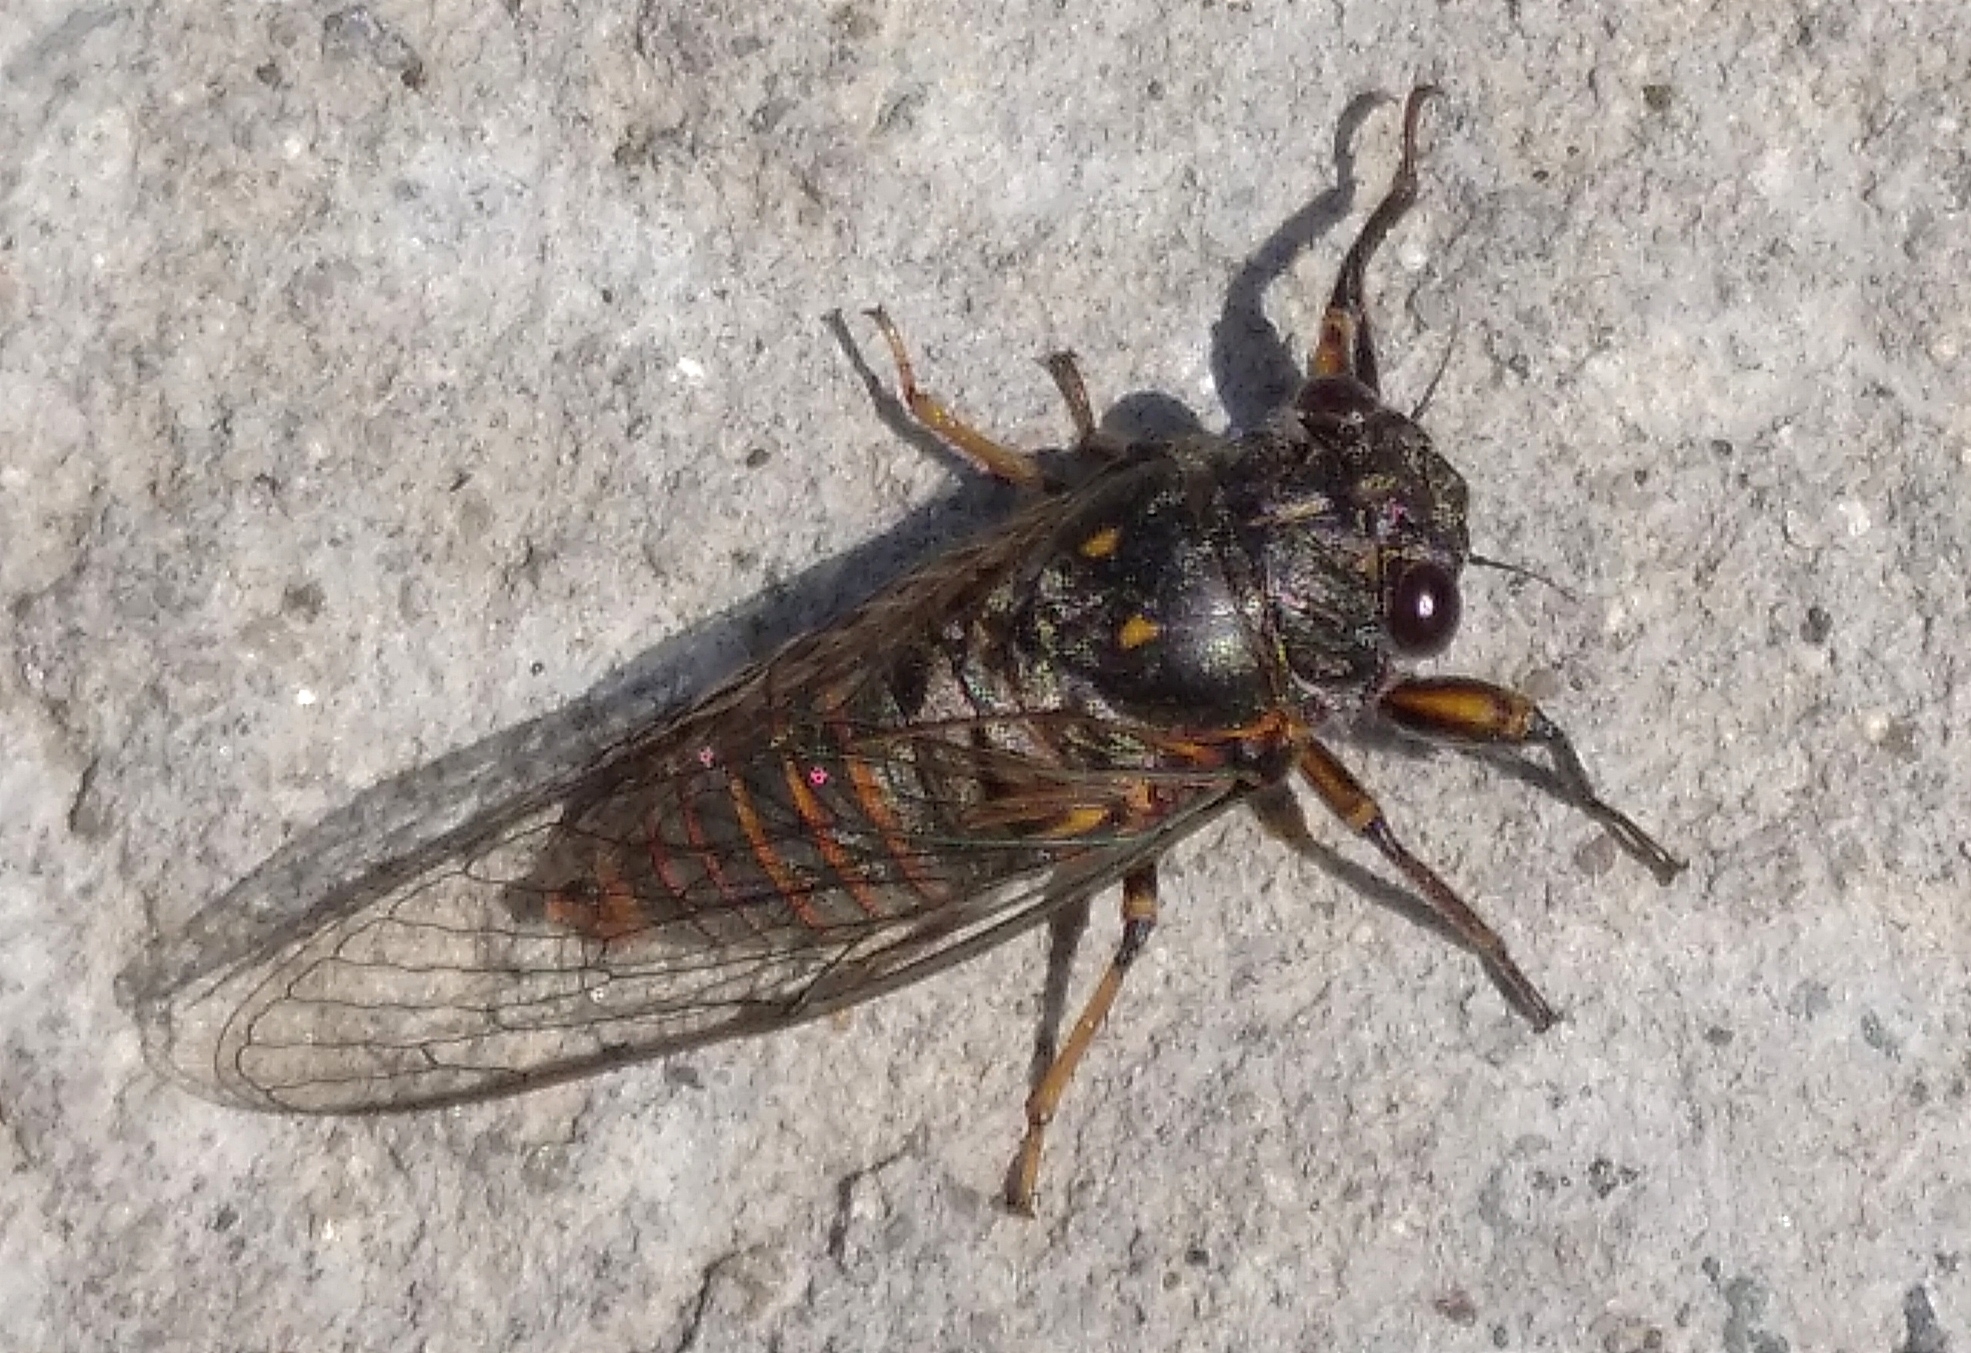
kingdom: Animalia
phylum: Arthropoda
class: Insecta
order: Hemiptera
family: Cicadidae
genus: Dimissalna
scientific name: Dimissalna dimissa
